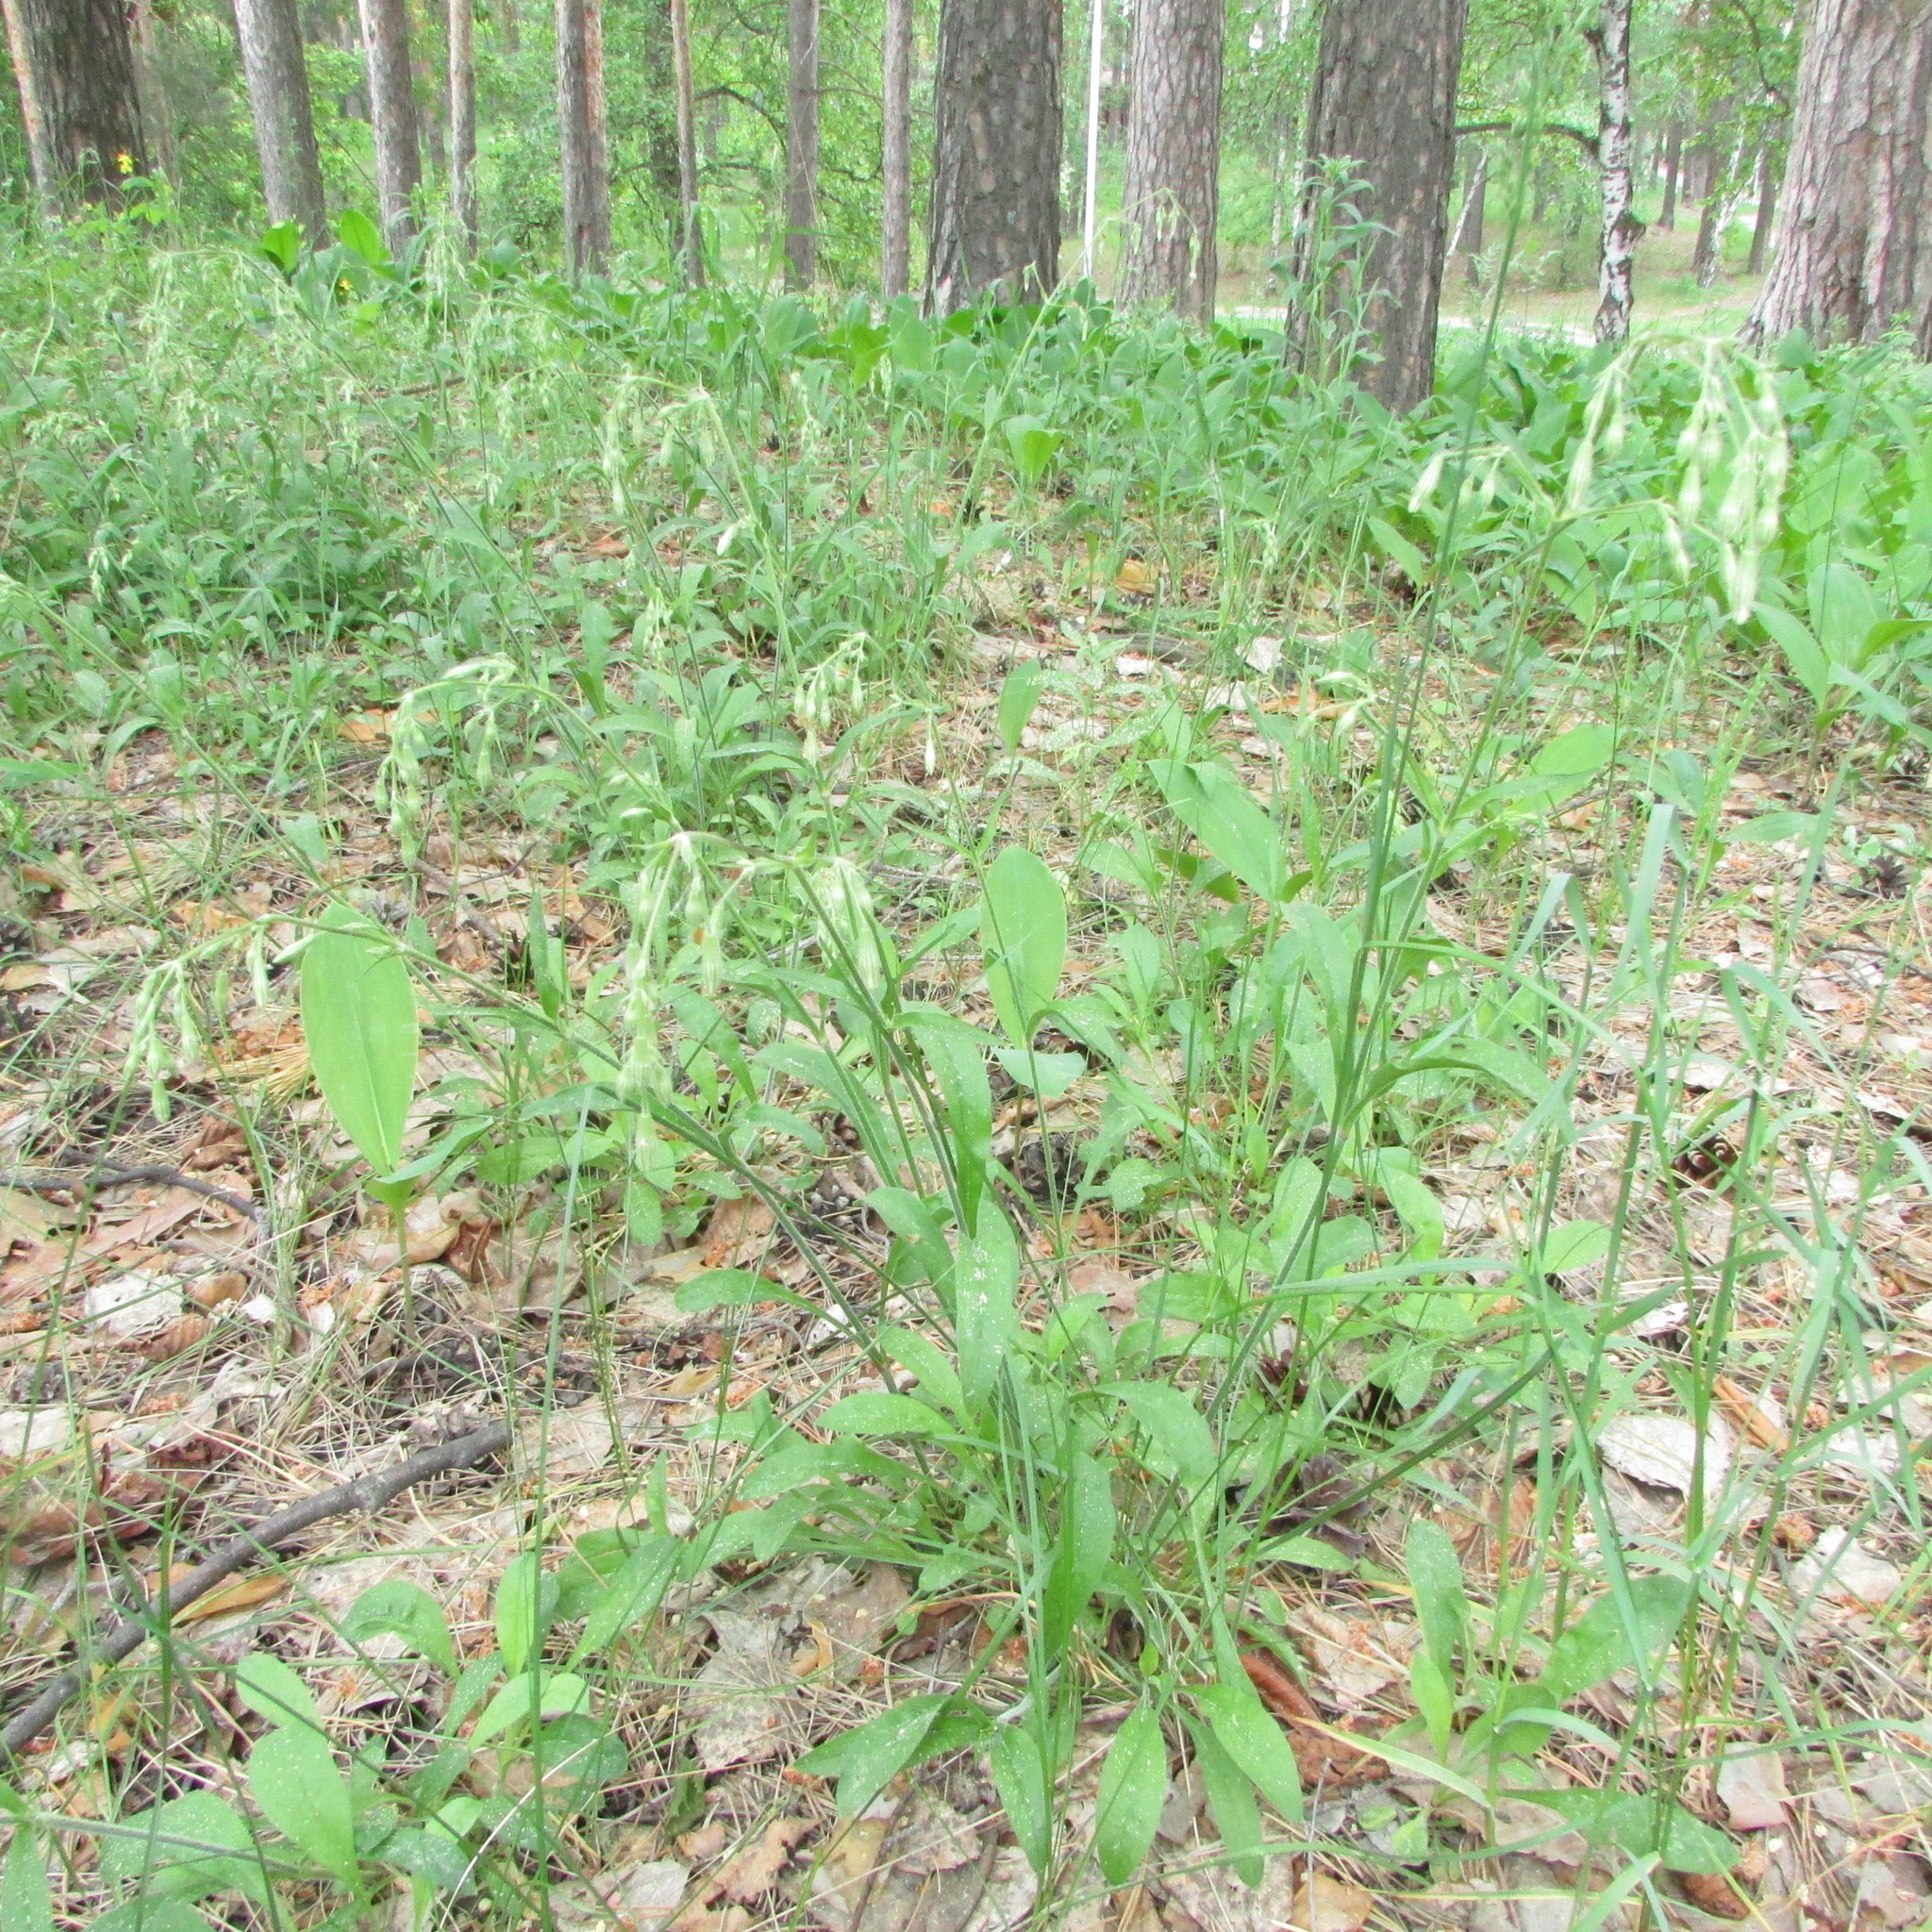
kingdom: Plantae
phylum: Tracheophyta
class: Magnoliopsida
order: Caryophyllales
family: Caryophyllaceae
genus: Silene
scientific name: Silene nutans
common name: Nottingham catchfly
